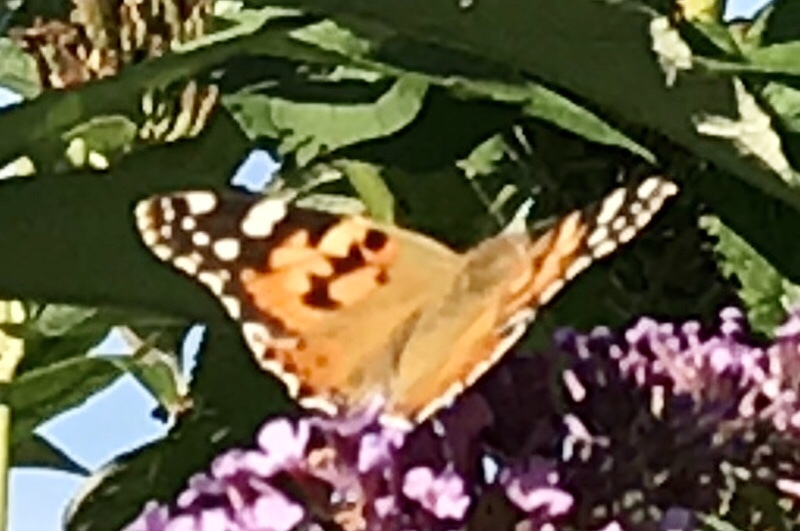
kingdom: Animalia
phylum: Arthropoda
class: Insecta
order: Lepidoptera
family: Nymphalidae
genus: Vanessa
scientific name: Vanessa cardui
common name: Painted lady
